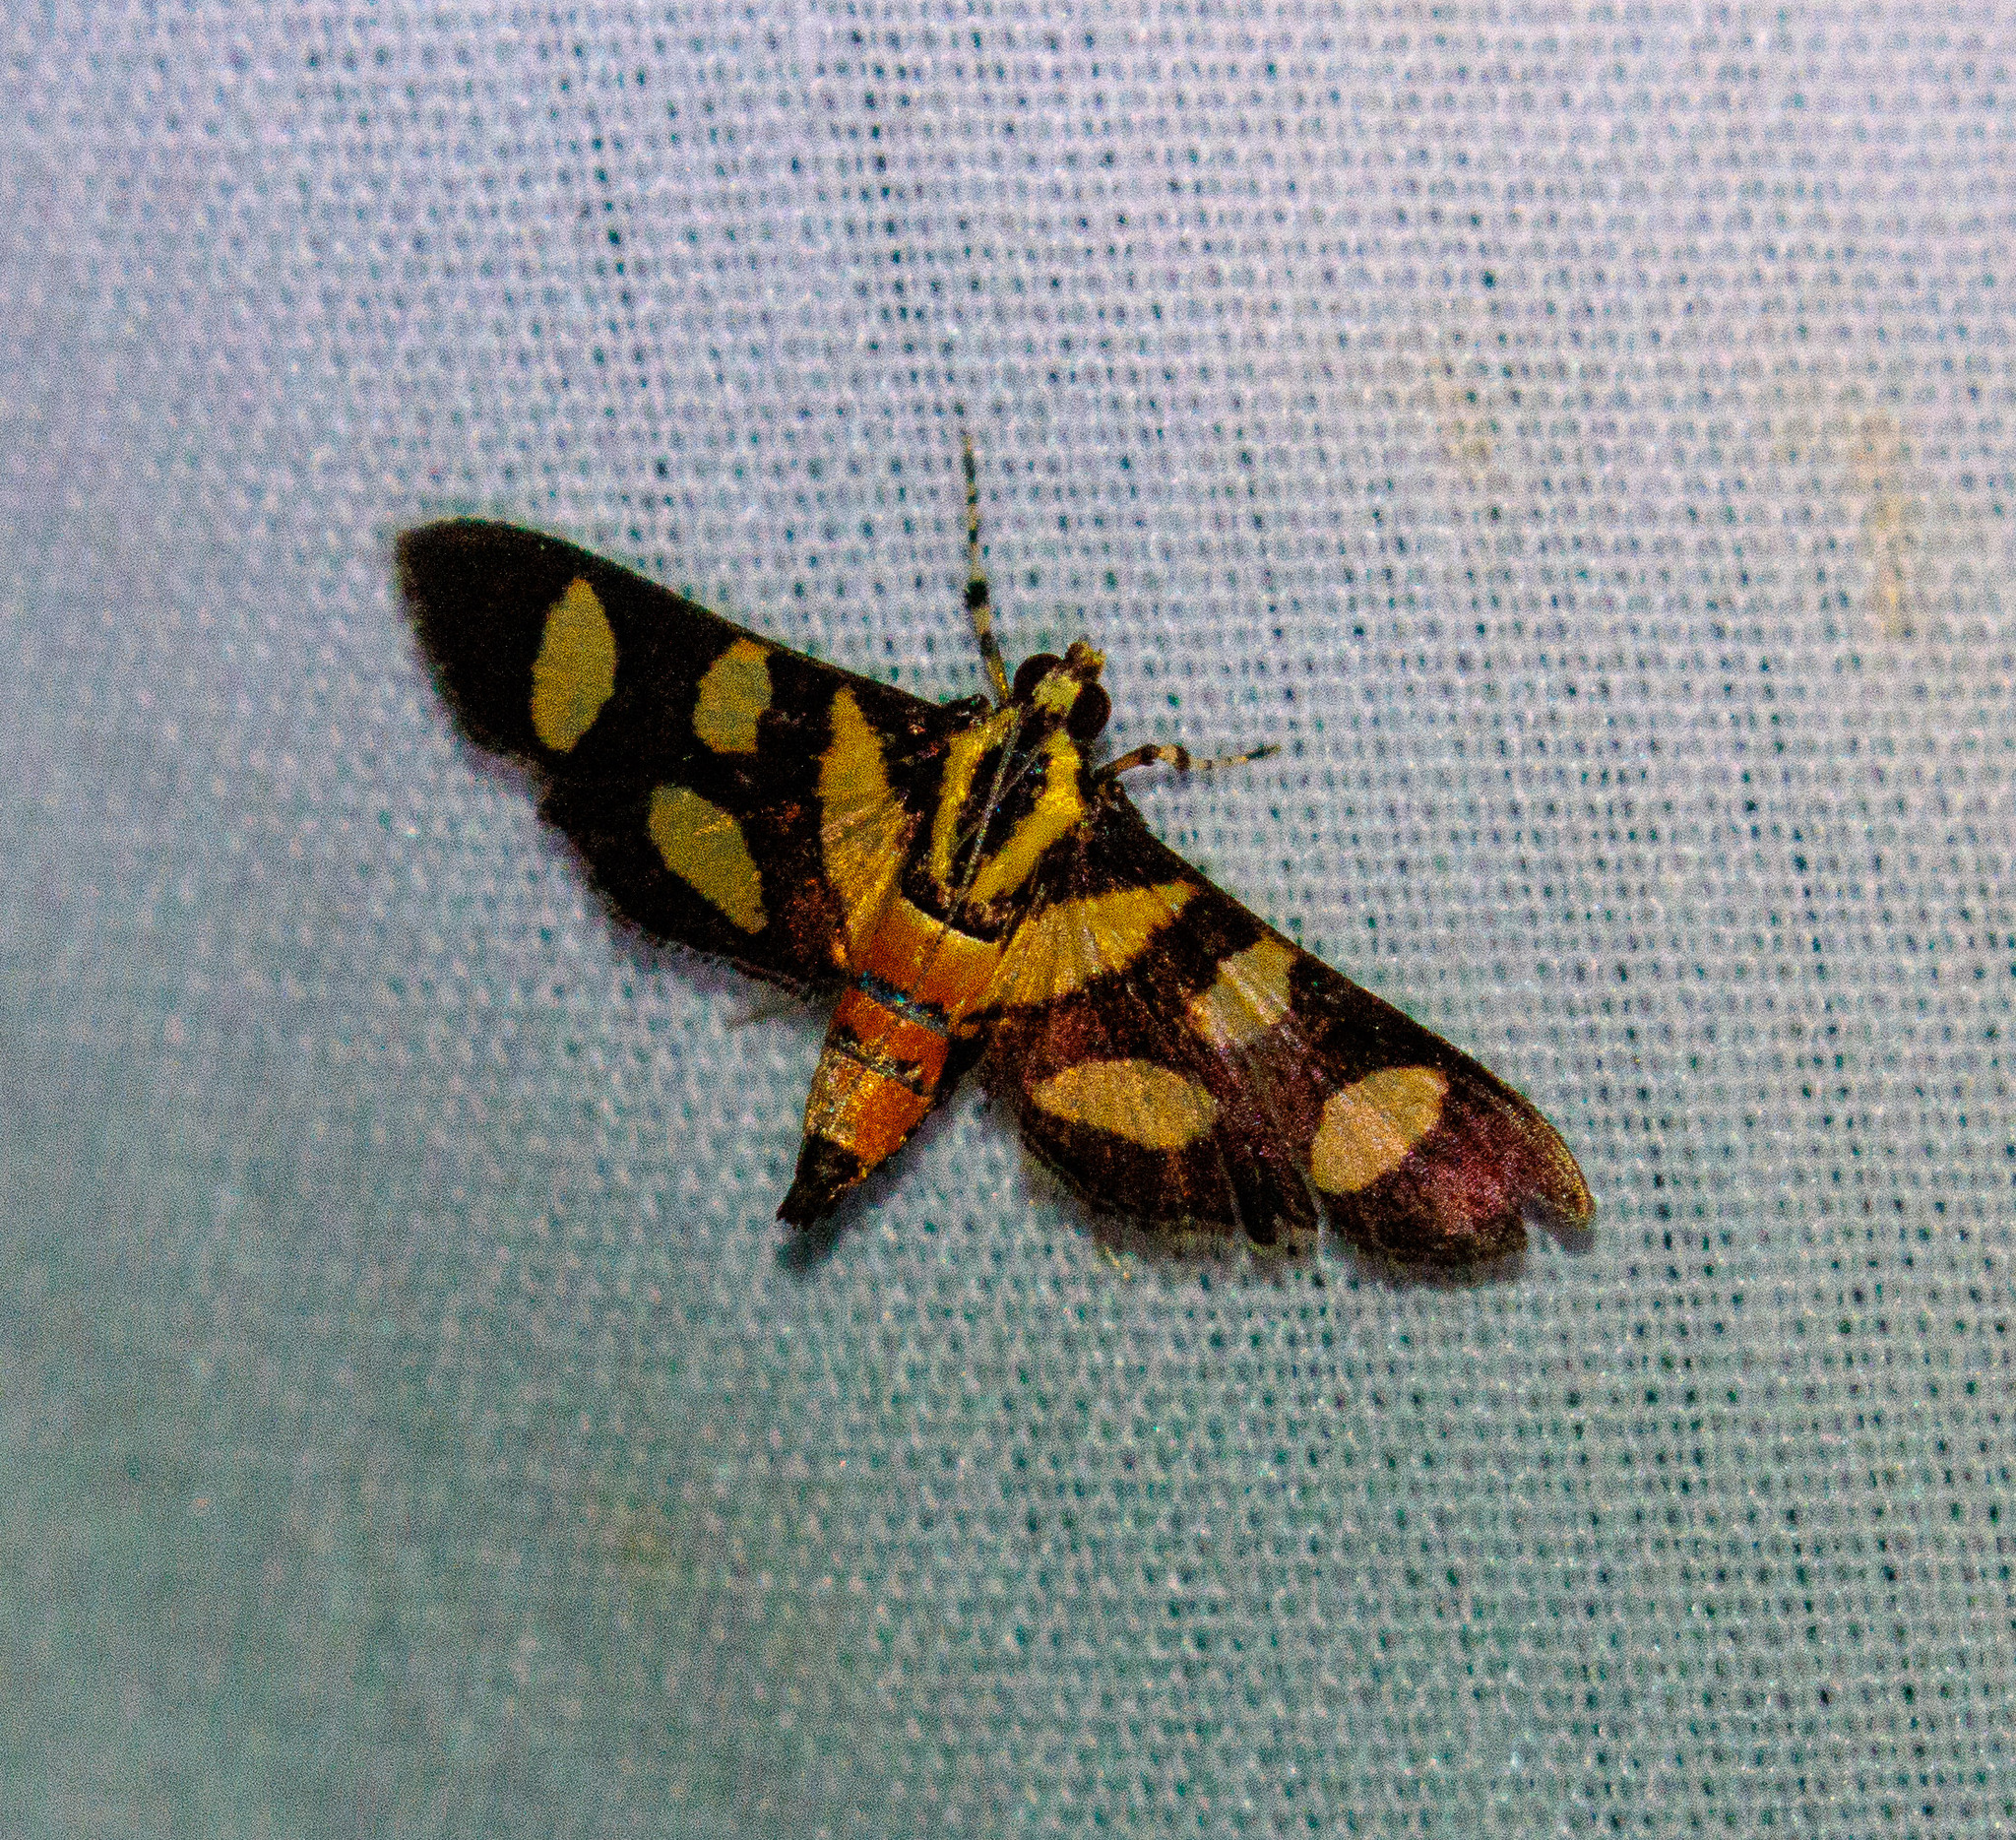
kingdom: Animalia
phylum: Arthropoda
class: Insecta
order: Lepidoptera
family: Crambidae
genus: Syngamia
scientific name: Syngamia florella
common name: Orange-spotted flower moth
